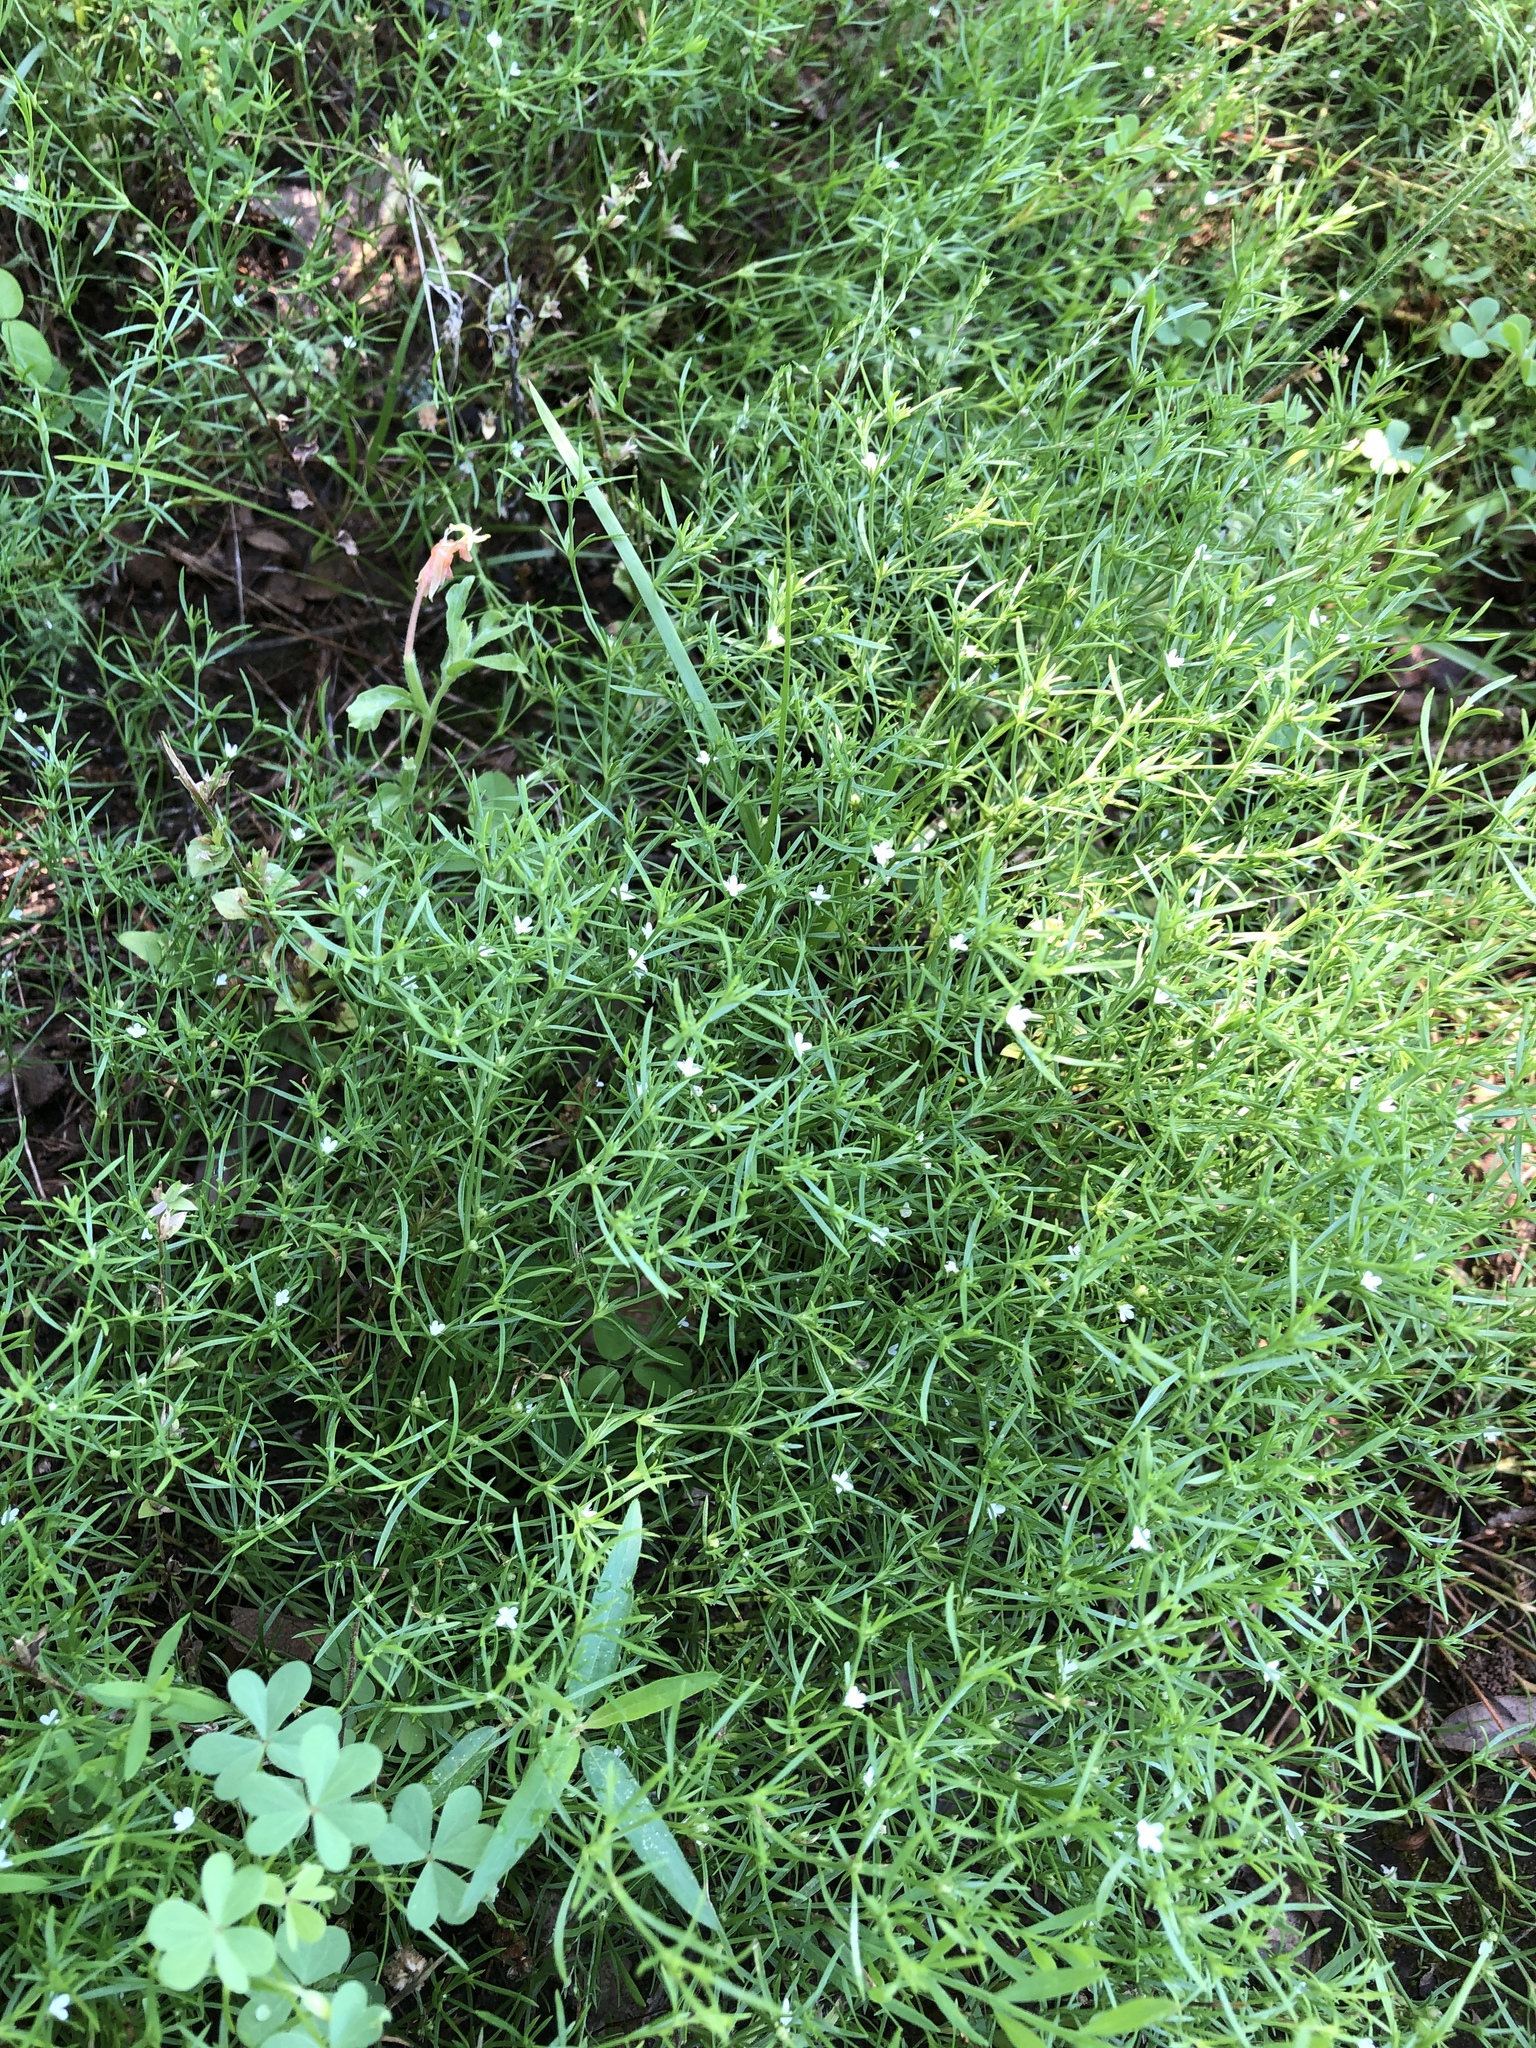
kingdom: Plantae
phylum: Tracheophyta
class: Magnoliopsida
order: Lamiales
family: Tetrachondraceae
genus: Polypremum
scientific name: Polypremum procumbens
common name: Juniper-leaf
